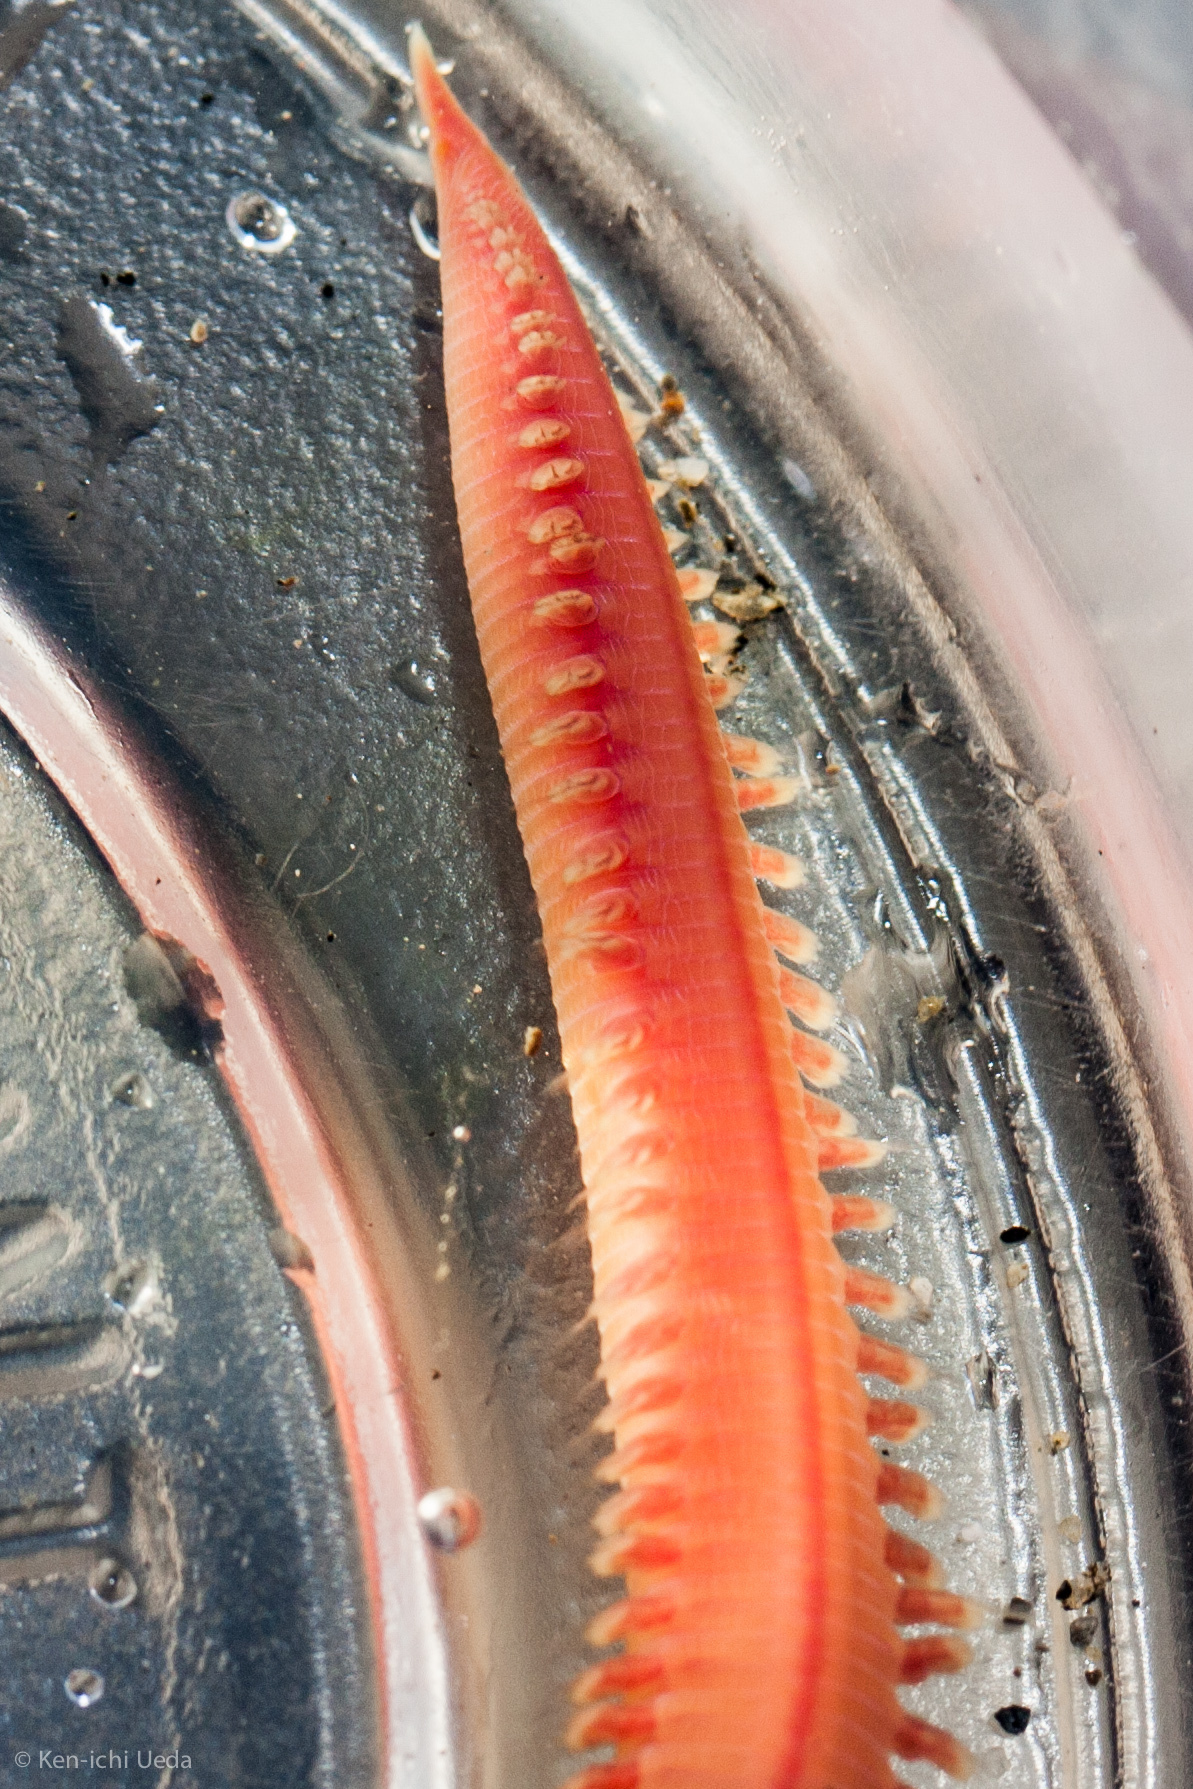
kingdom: Animalia
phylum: Annelida
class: Polychaeta
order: Phyllodocida
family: Glyceridae
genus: Glycera
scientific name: Glycera robusta
